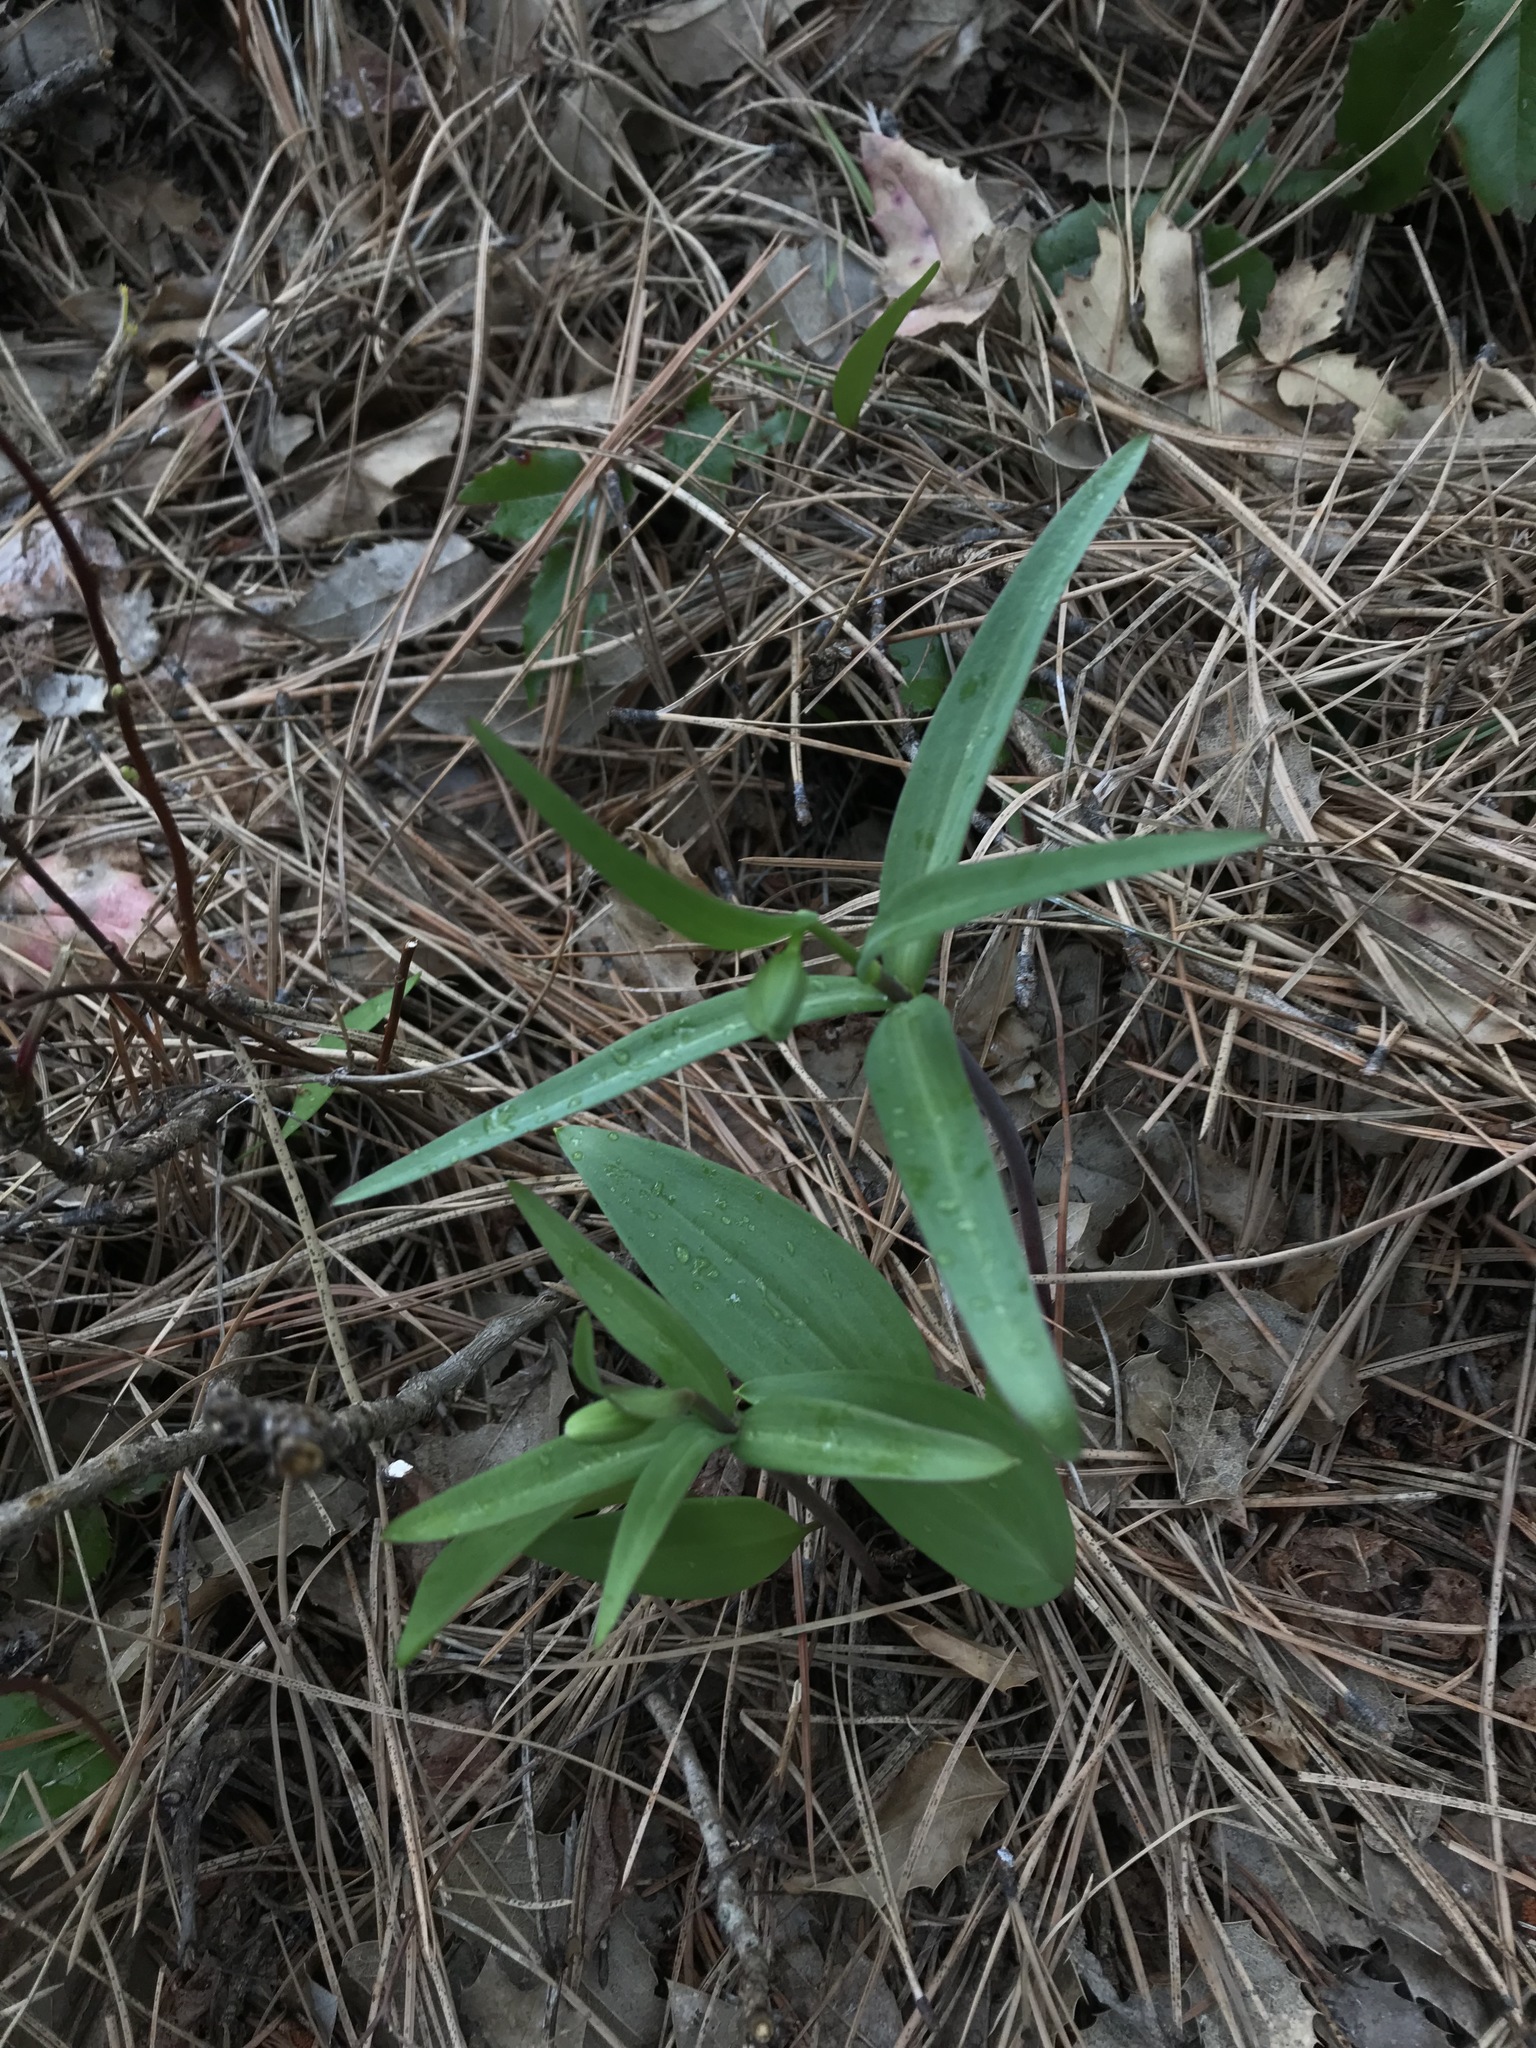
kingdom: Plantae
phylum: Tracheophyta
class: Liliopsida
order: Liliales
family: Liliaceae
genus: Fritillaria
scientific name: Fritillaria affinis
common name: Ojai fritillary
